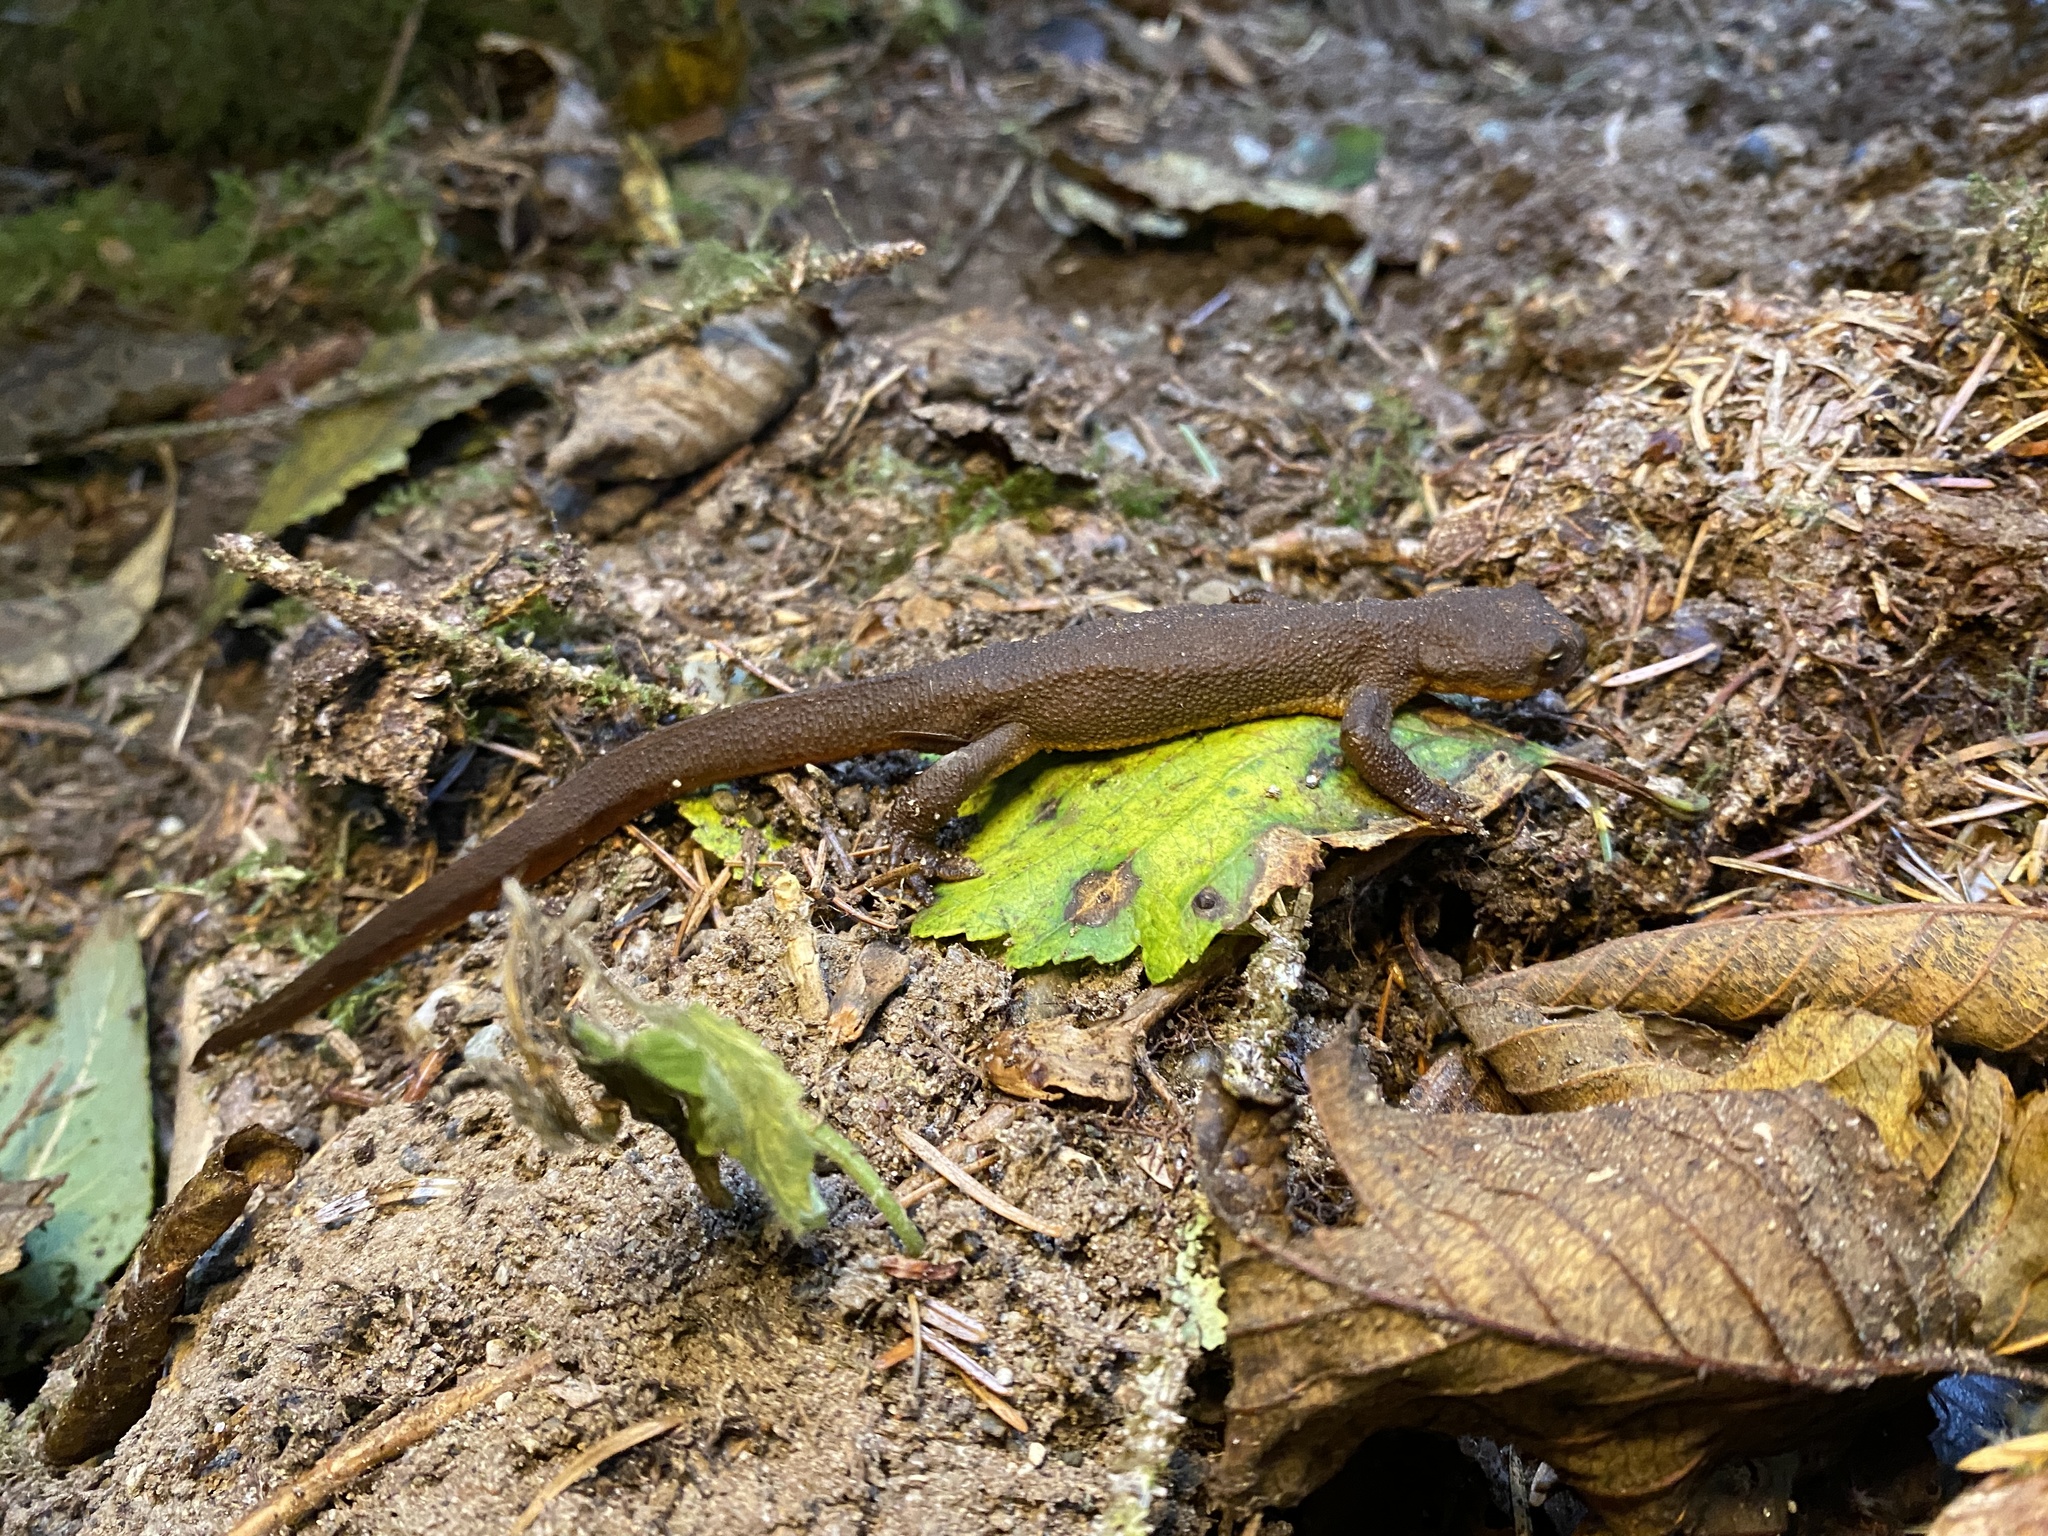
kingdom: Animalia
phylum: Chordata
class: Amphibia
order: Caudata
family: Salamandridae
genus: Taricha
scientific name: Taricha granulosa
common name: Roughskin newt
